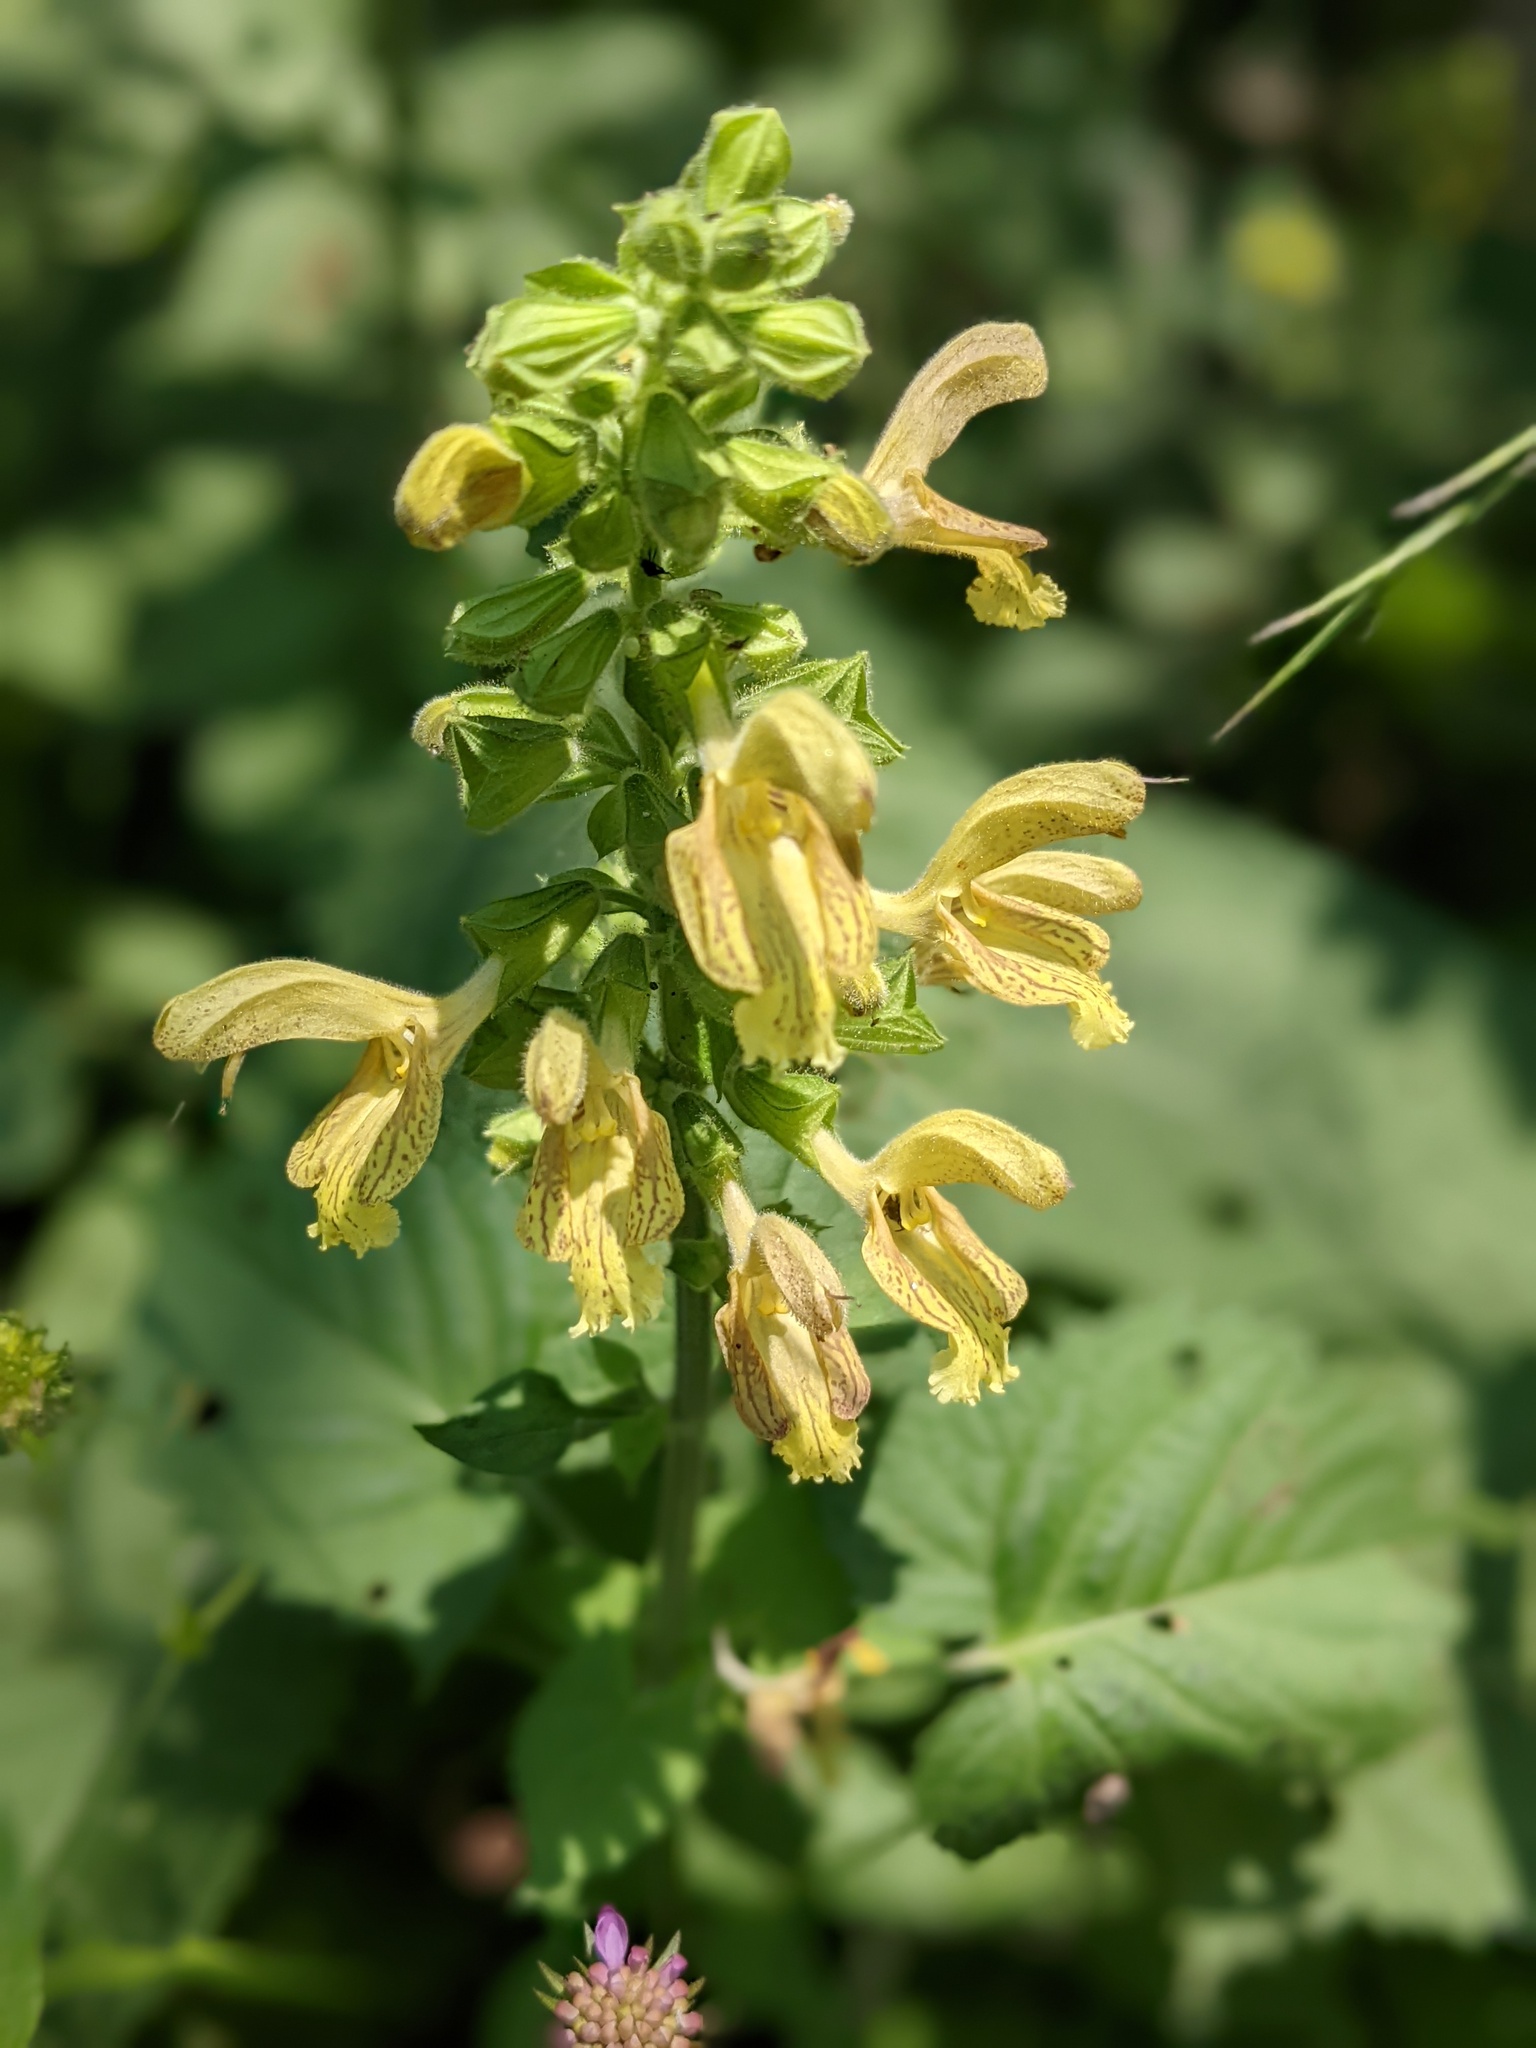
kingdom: Plantae
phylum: Tracheophyta
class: Magnoliopsida
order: Lamiales
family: Lamiaceae
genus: Salvia
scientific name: Salvia glutinosa
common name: Sticky clary
